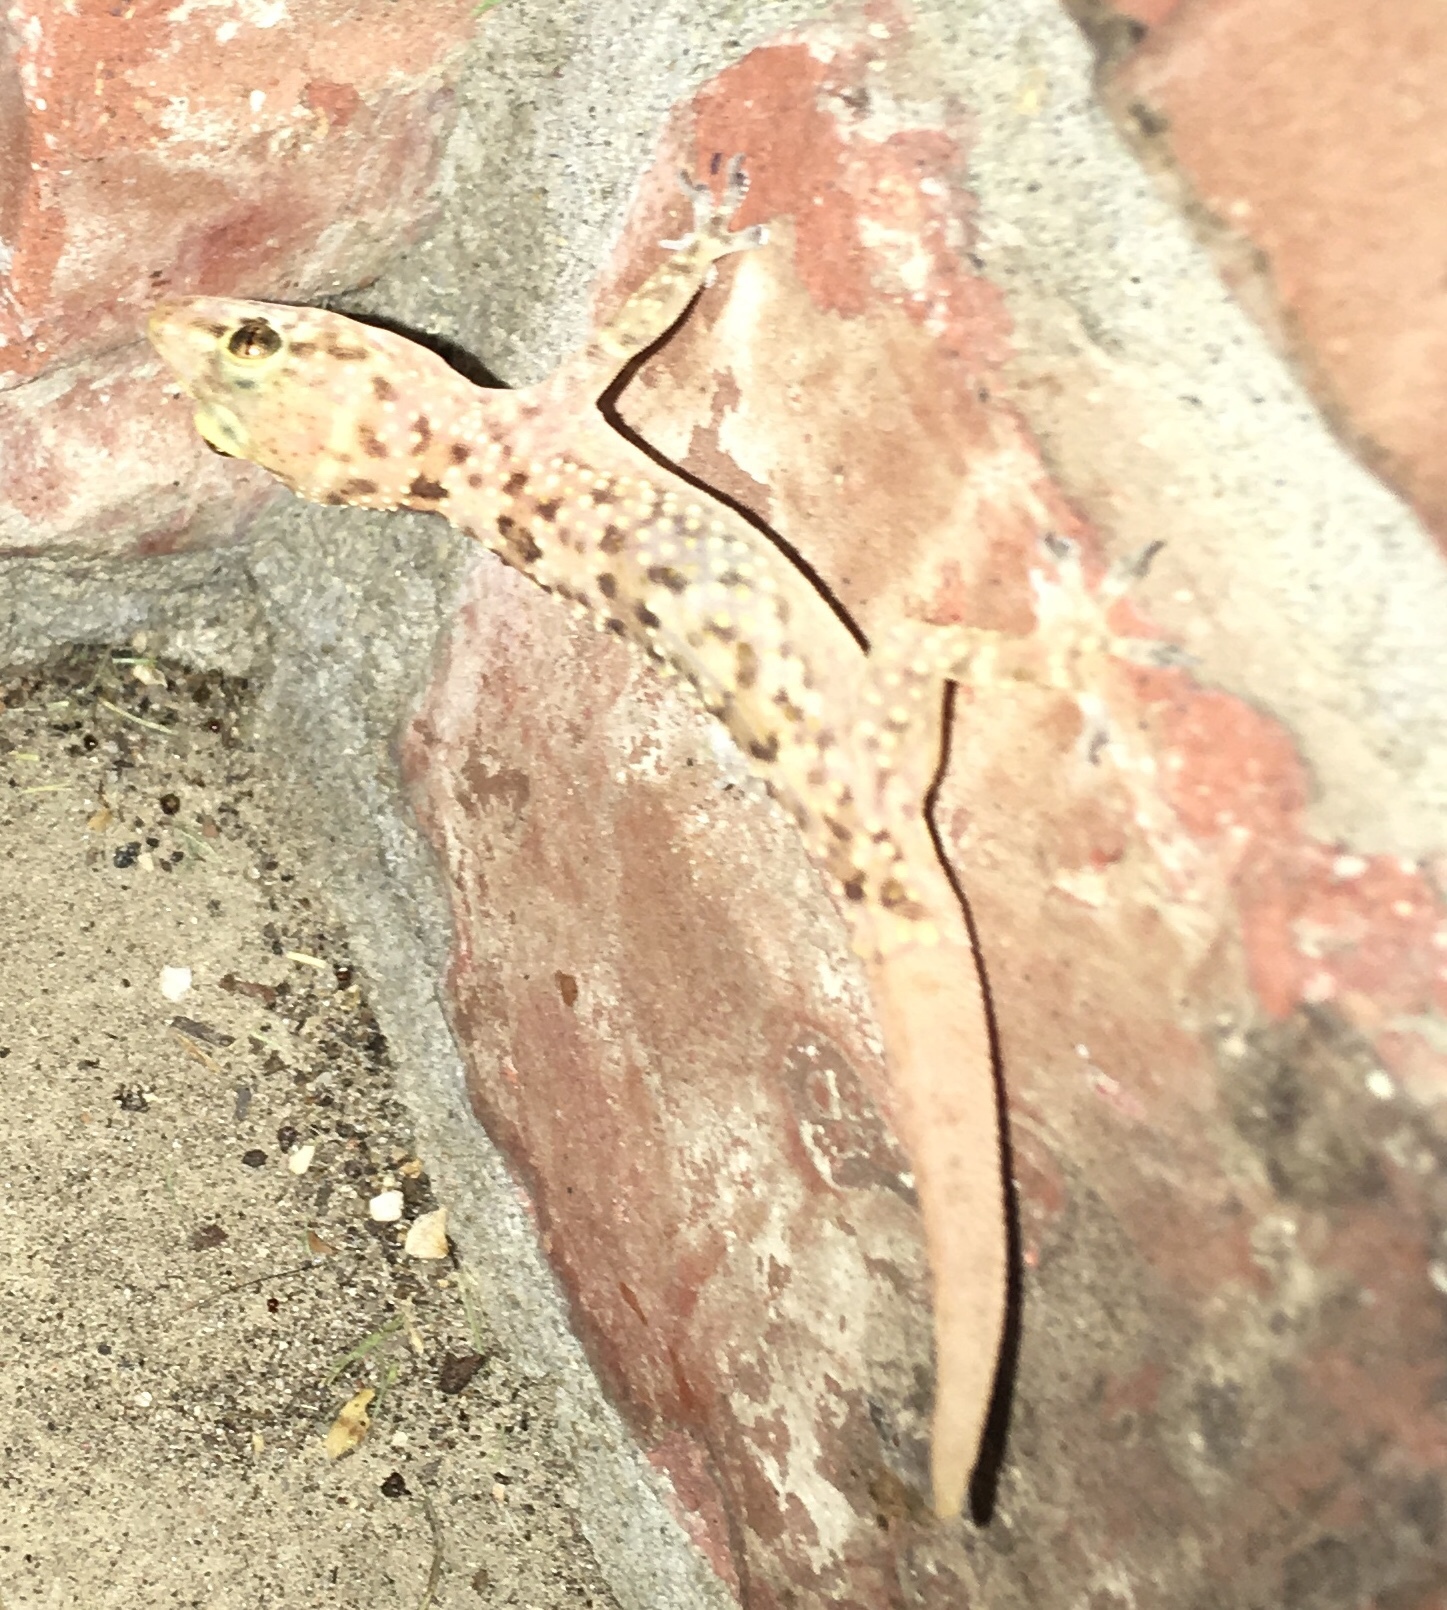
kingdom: Animalia
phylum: Chordata
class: Squamata
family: Gekkonidae
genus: Hemidactylus
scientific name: Hemidactylus turcicus
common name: Turkish gecko
